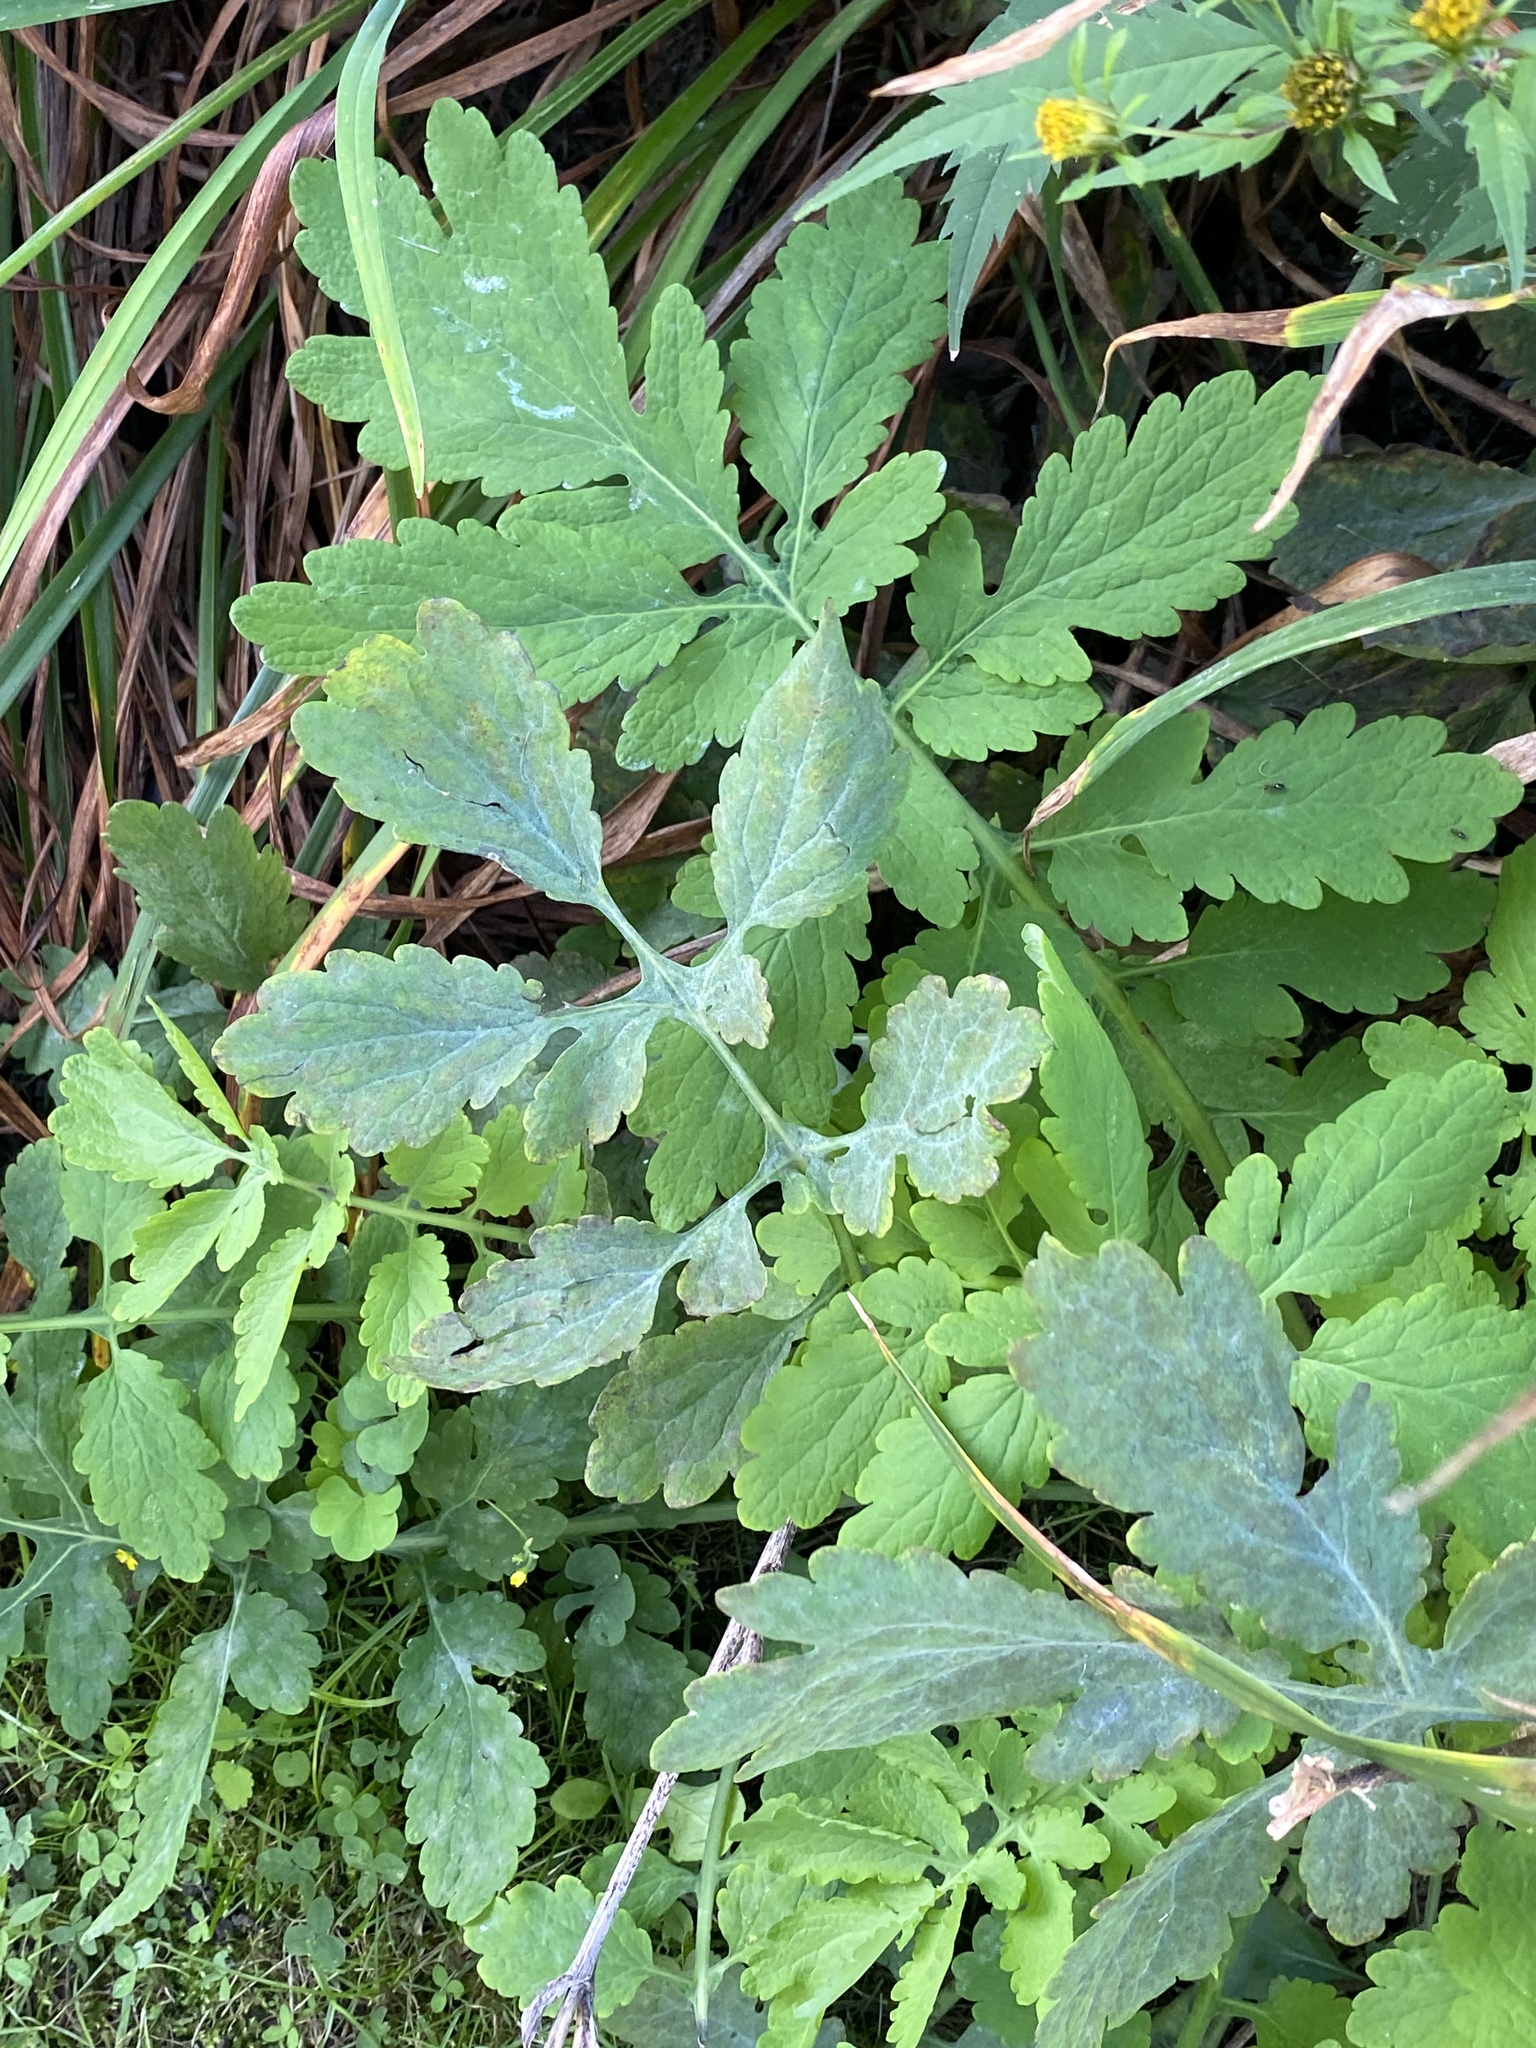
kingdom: Plantae
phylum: Tracheophyta
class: Magnoliopsida
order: Ranunculales
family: Papaveraceae
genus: Chelidonium
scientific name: Chelidonium majus
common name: Greater celandine
